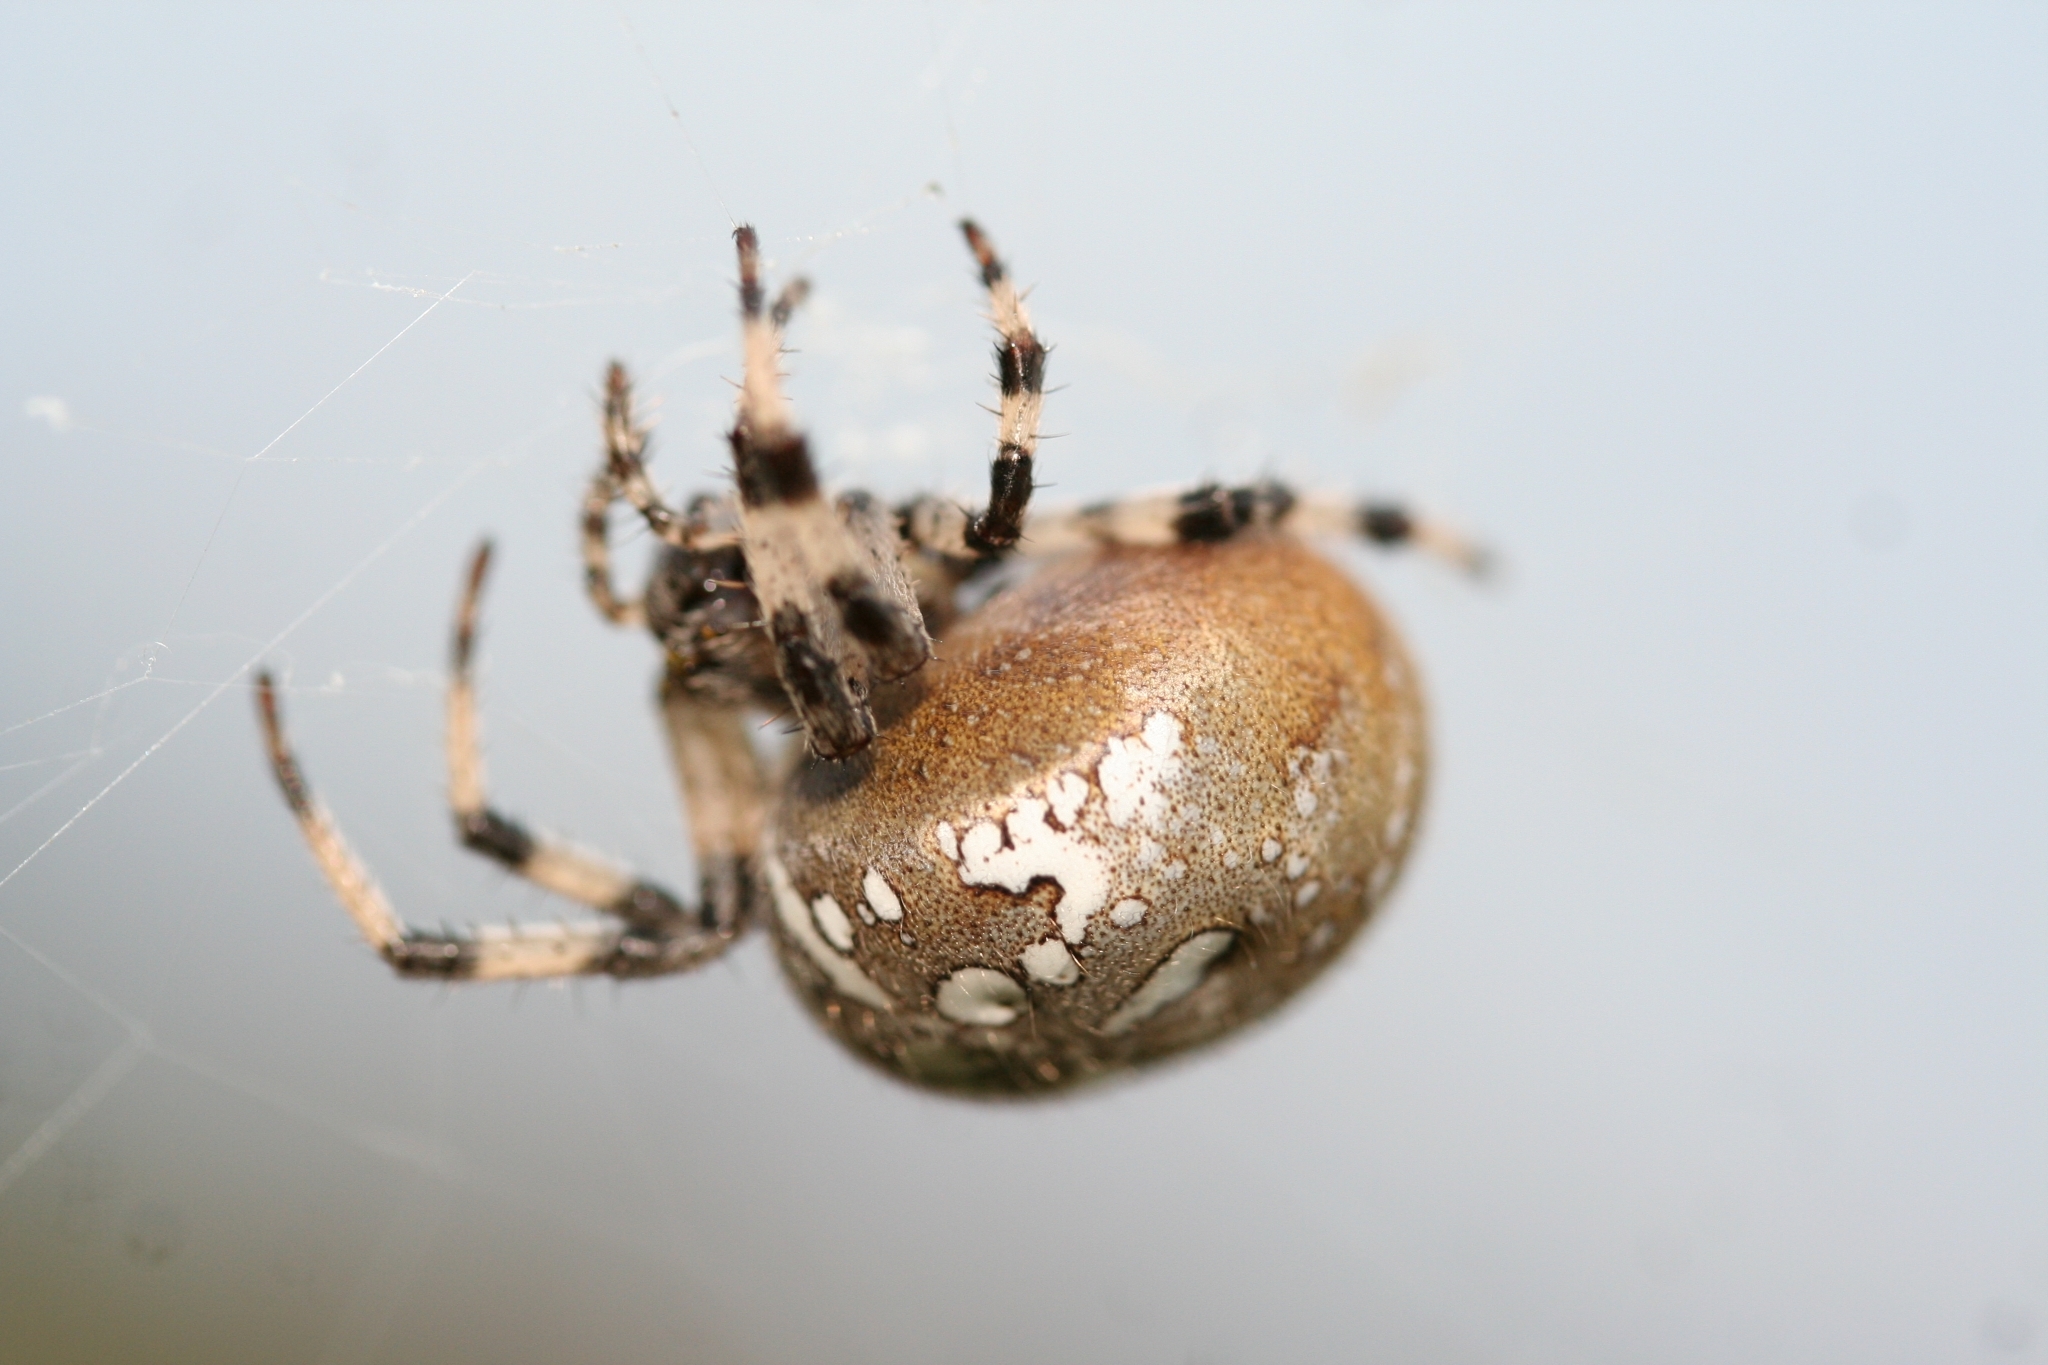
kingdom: Animalia
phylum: Arthropoda
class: Arachnida
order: Araneae
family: Araneidae
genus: Araneus
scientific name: Araneus quadratus
